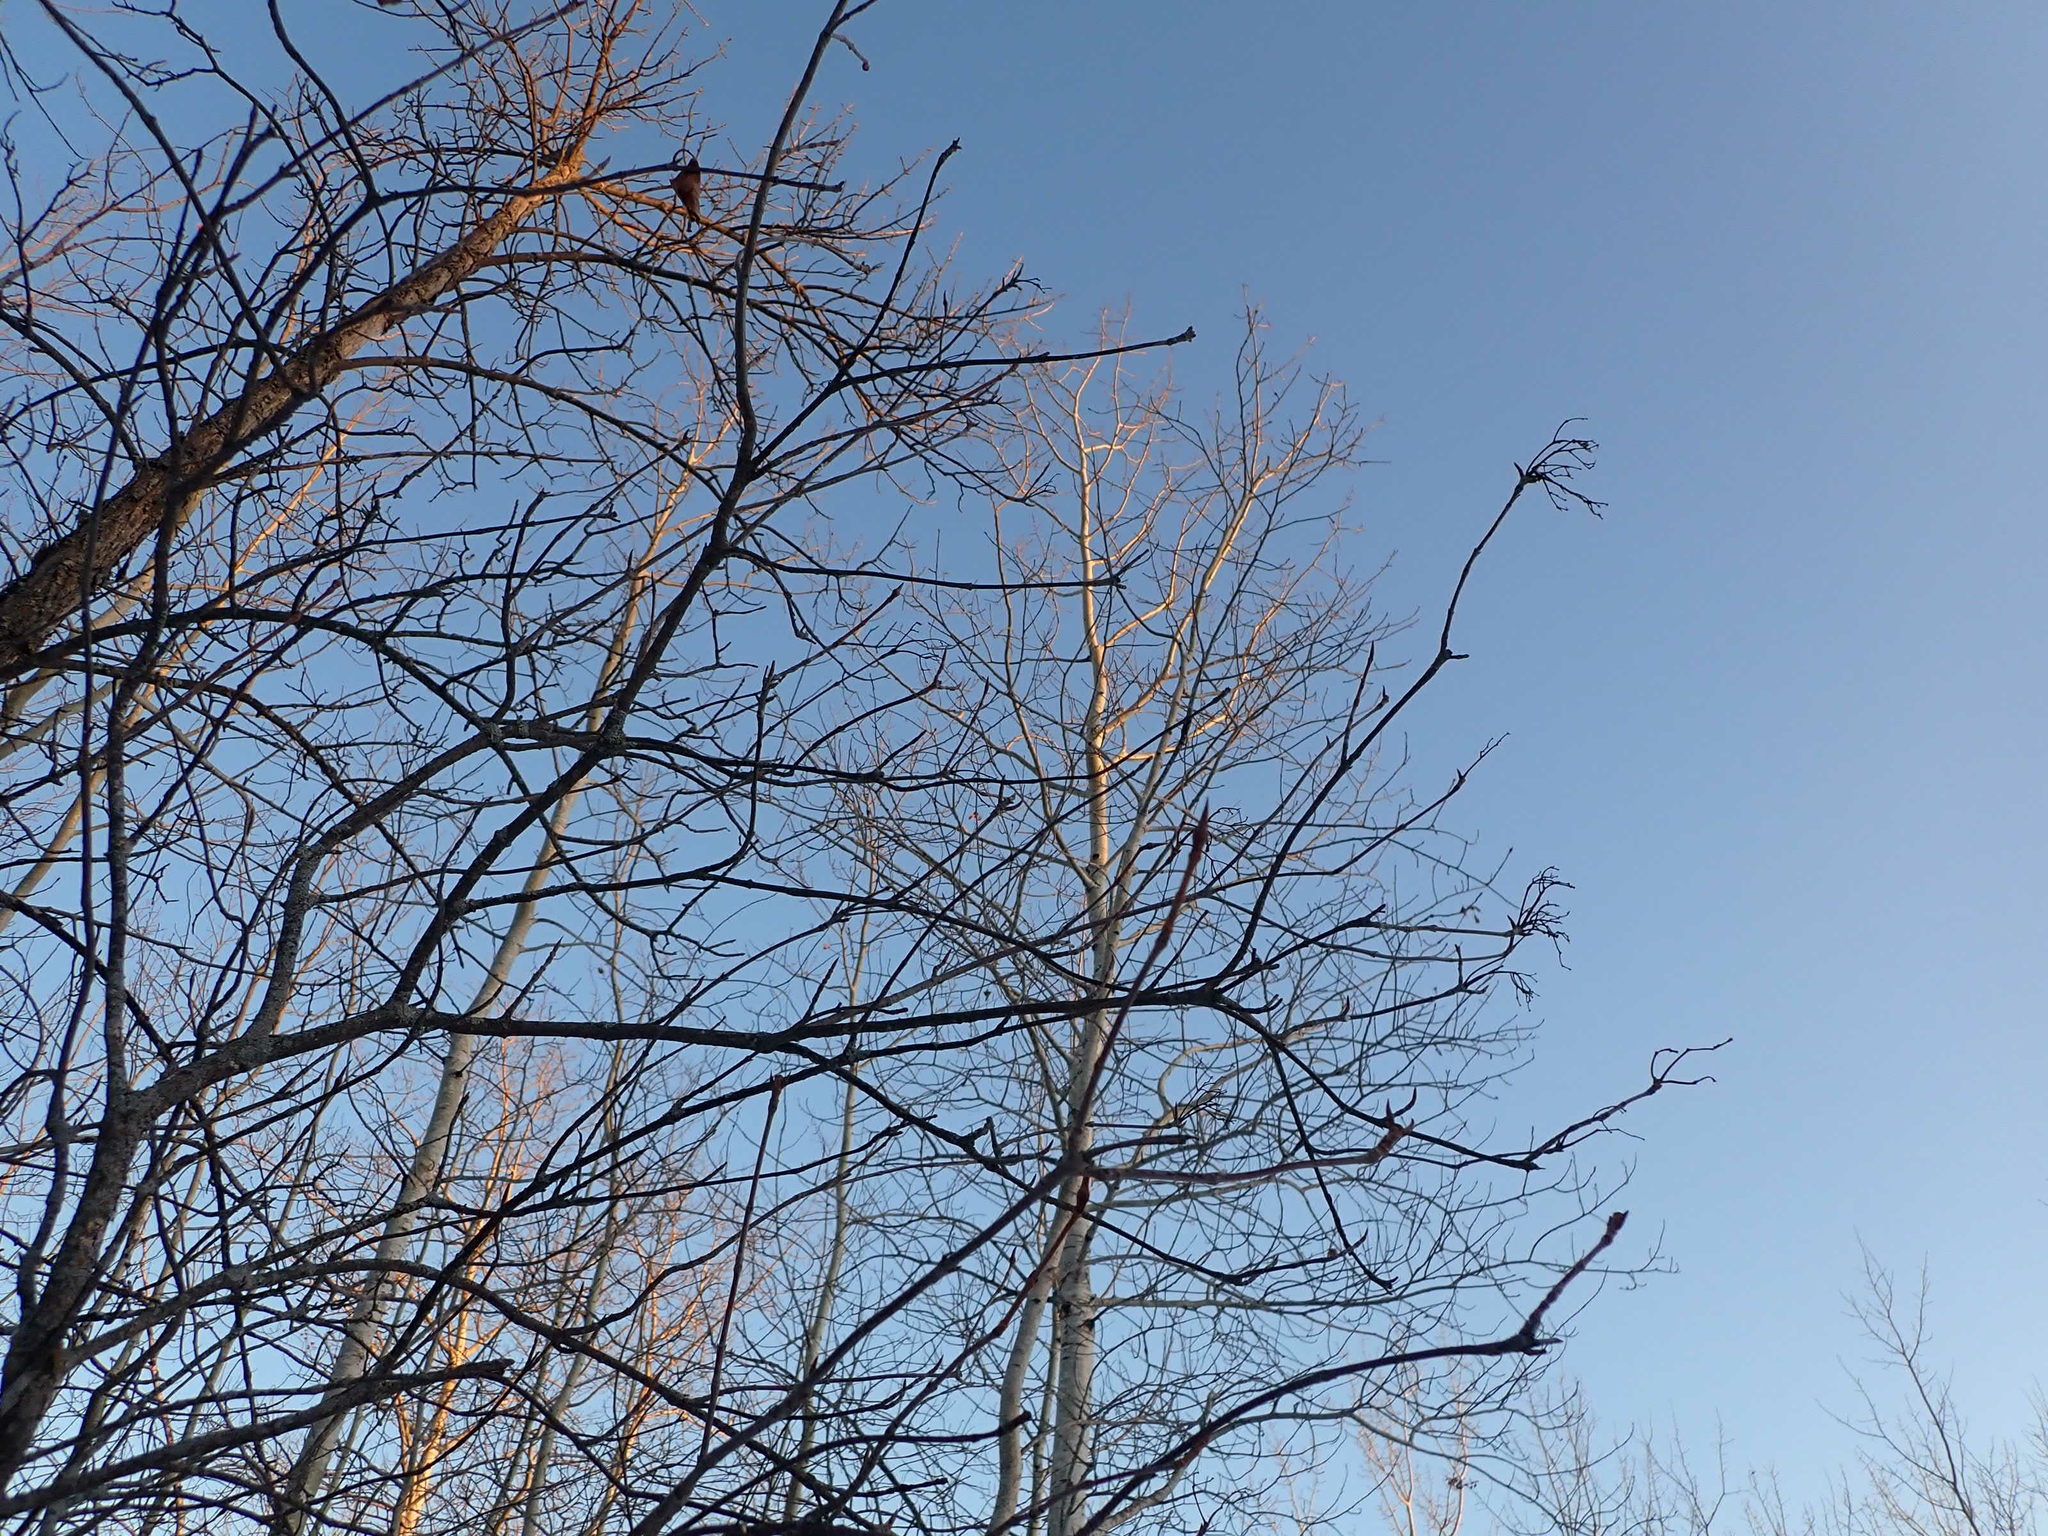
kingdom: Plantae
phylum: Tracheophyta
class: Magnoliopsida
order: Dipsacales
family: Viburnaceae
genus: Viburnum
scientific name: Viburnum lentago
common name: Black haw
